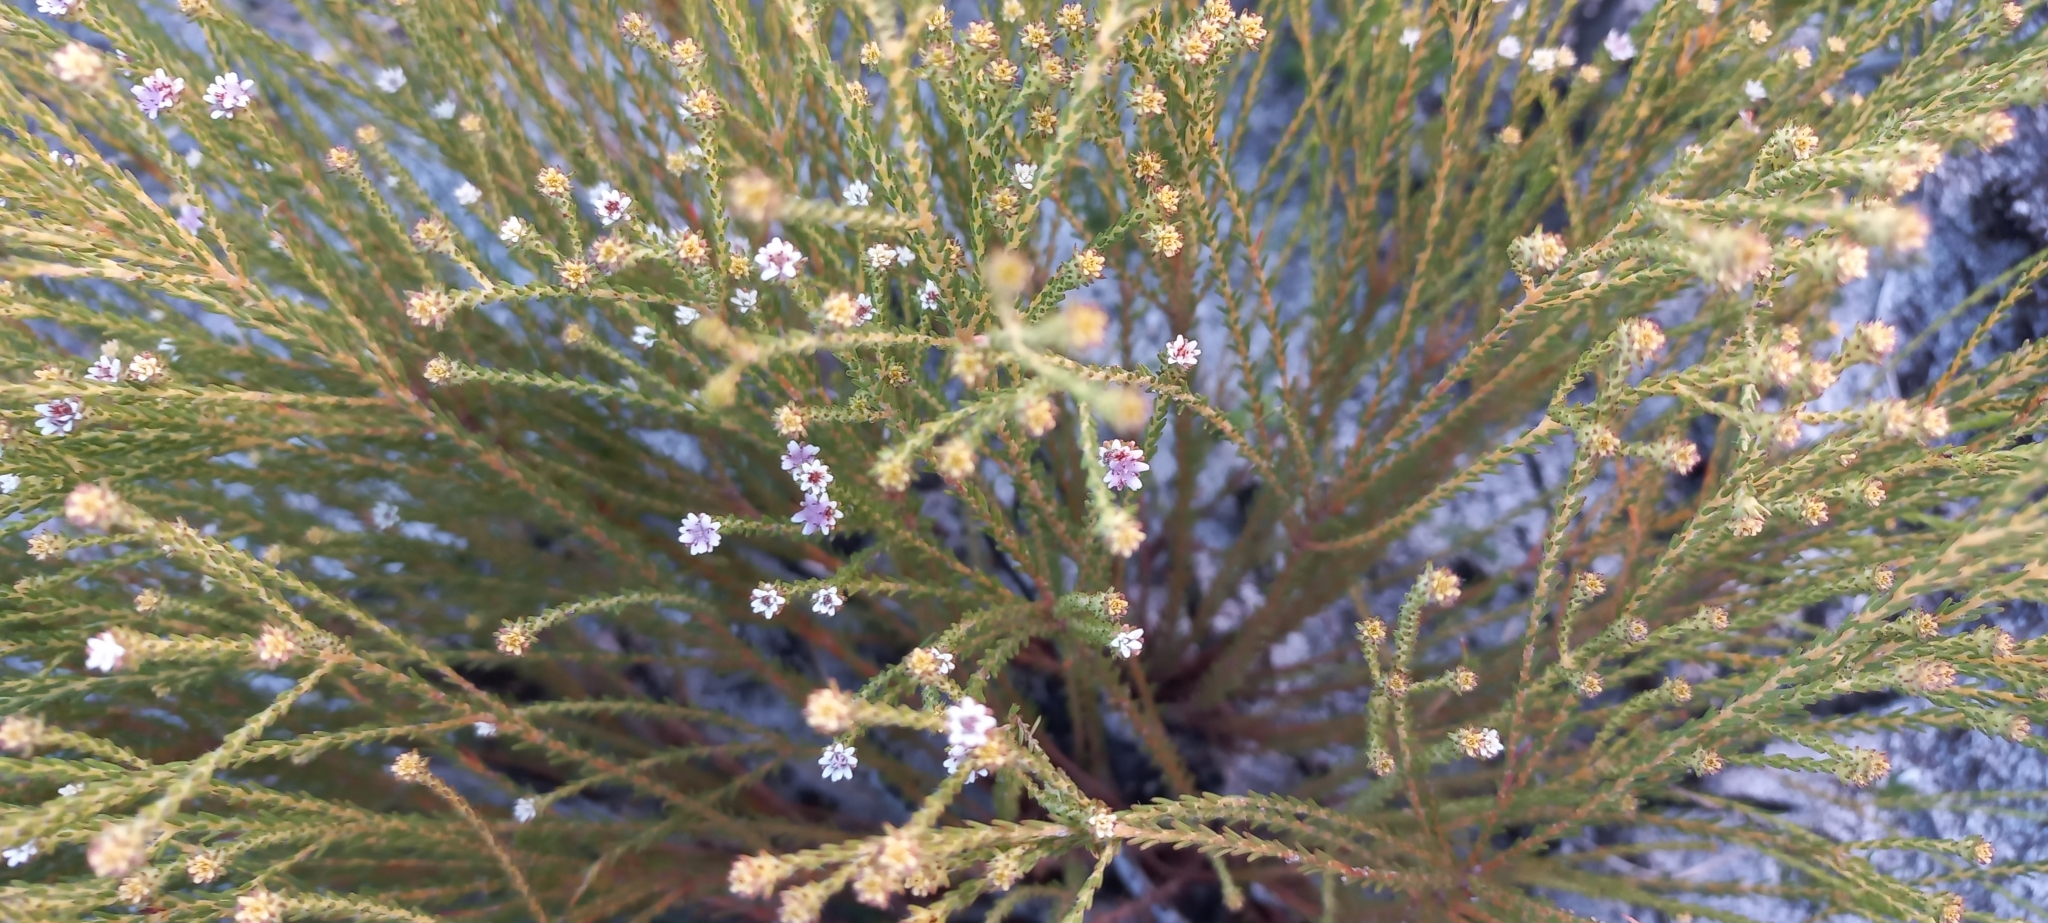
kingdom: Plantae
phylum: Tracheophyta
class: Magnoliopsida
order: Bruniales
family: Bruniaceae
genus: Staavia
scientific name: Staavia radiata
